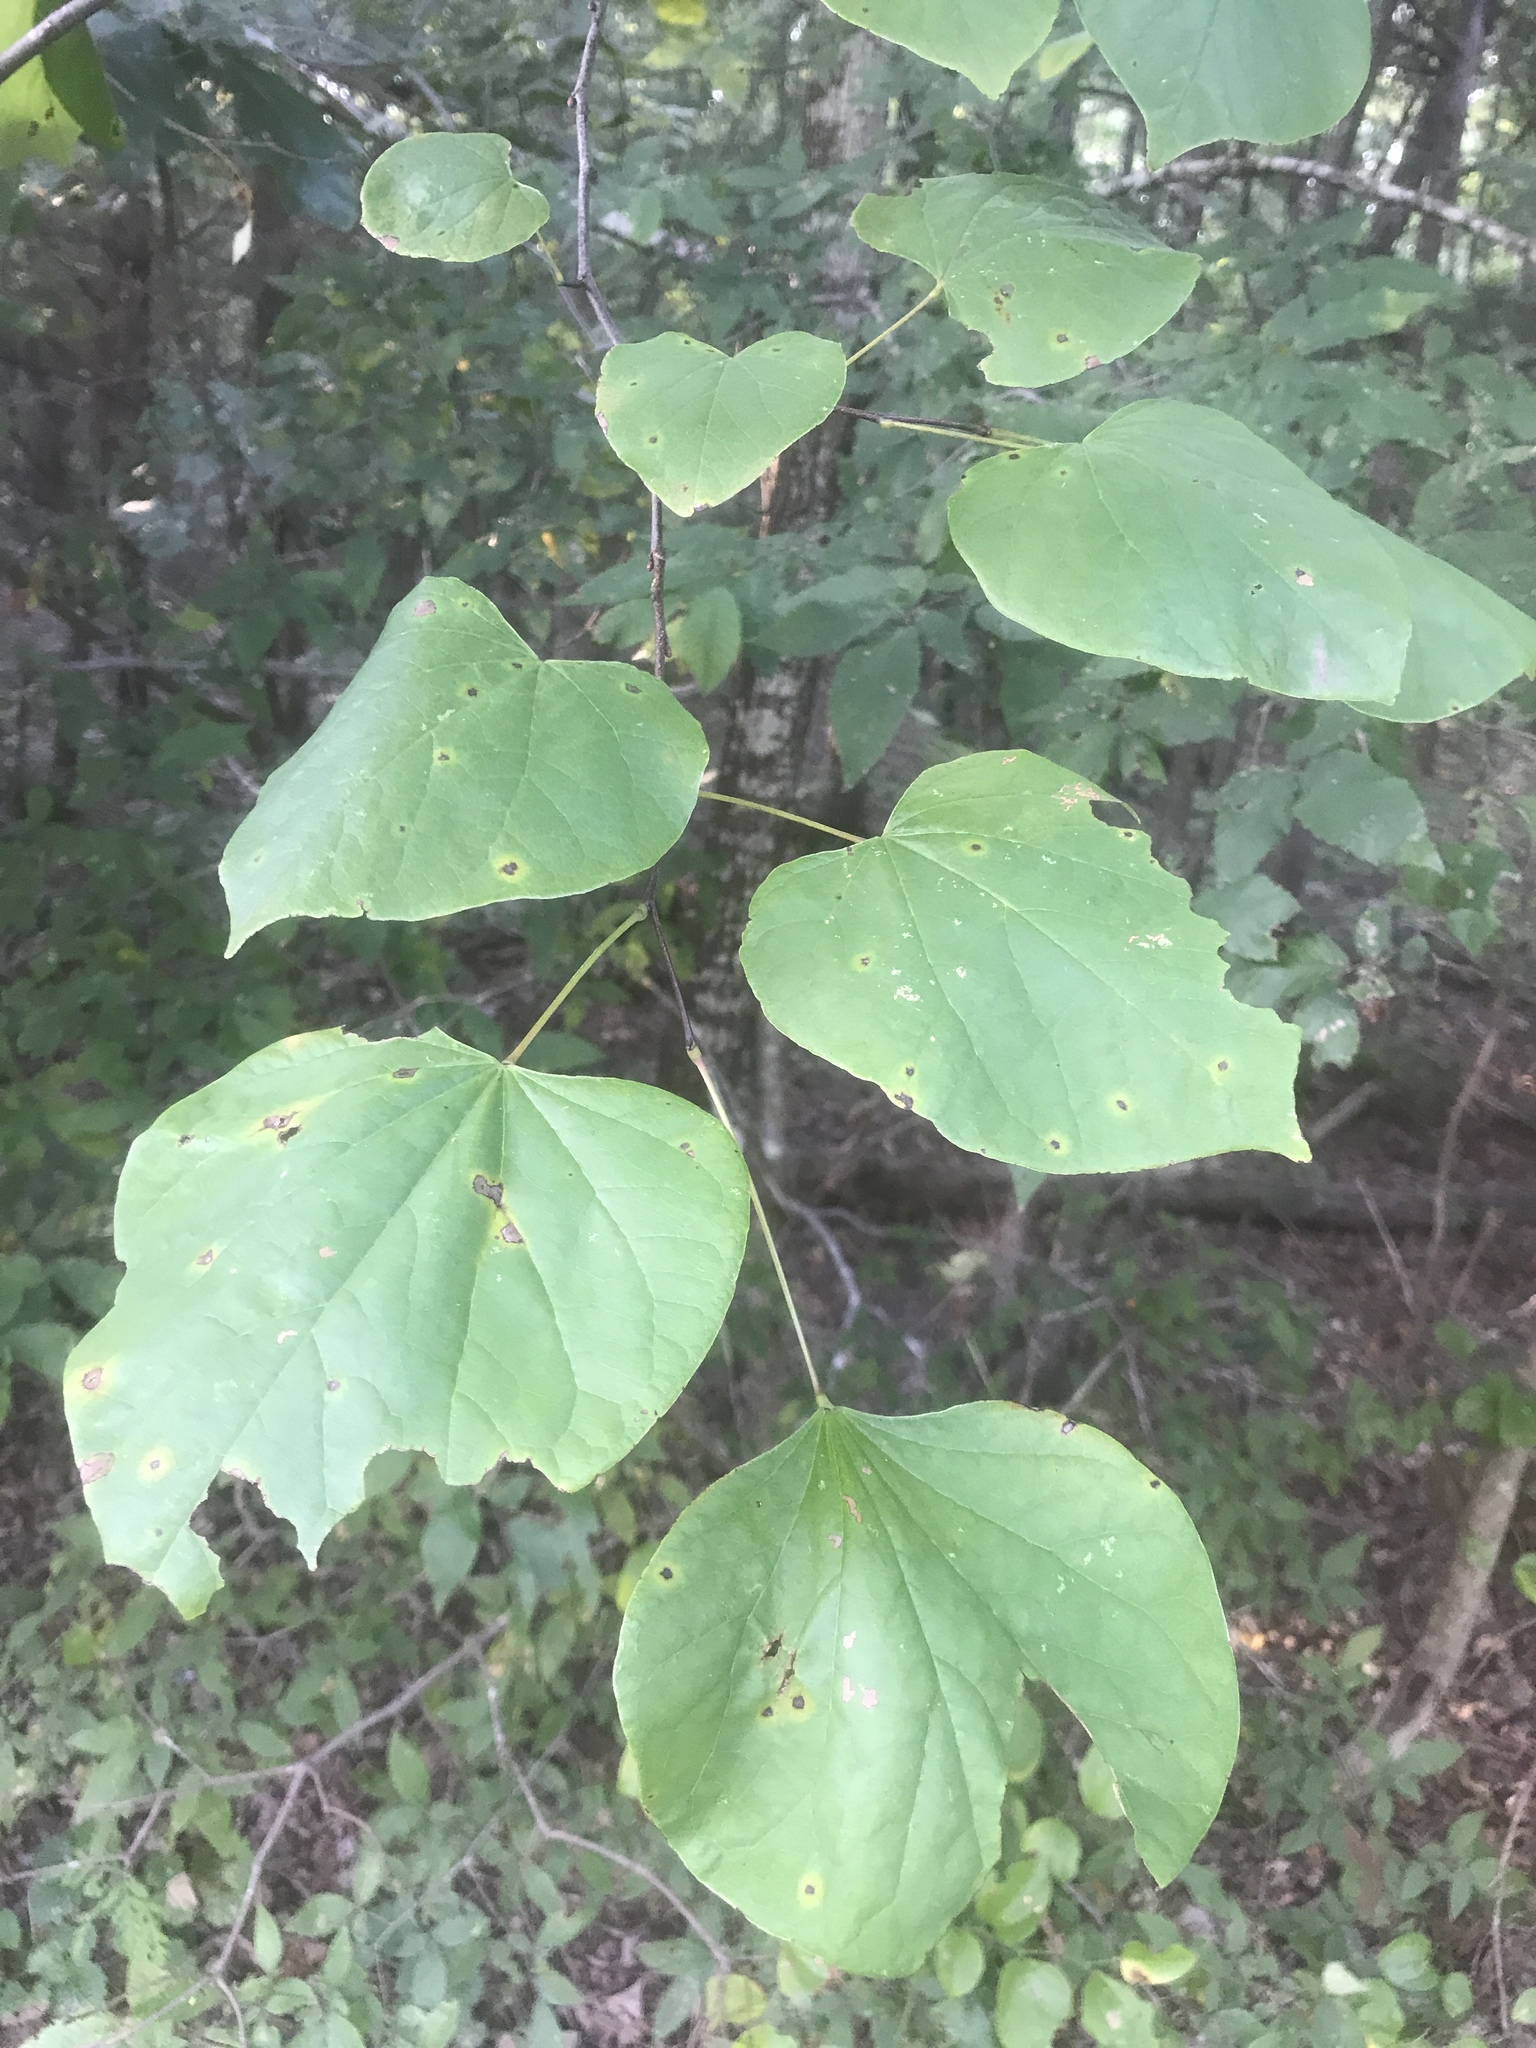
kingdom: Plantae
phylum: Tracheophyta
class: Magnoliopsida
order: Fabales
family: Fabaceae
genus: Cercis
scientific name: Cercis canadensis
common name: Eastern redbud
